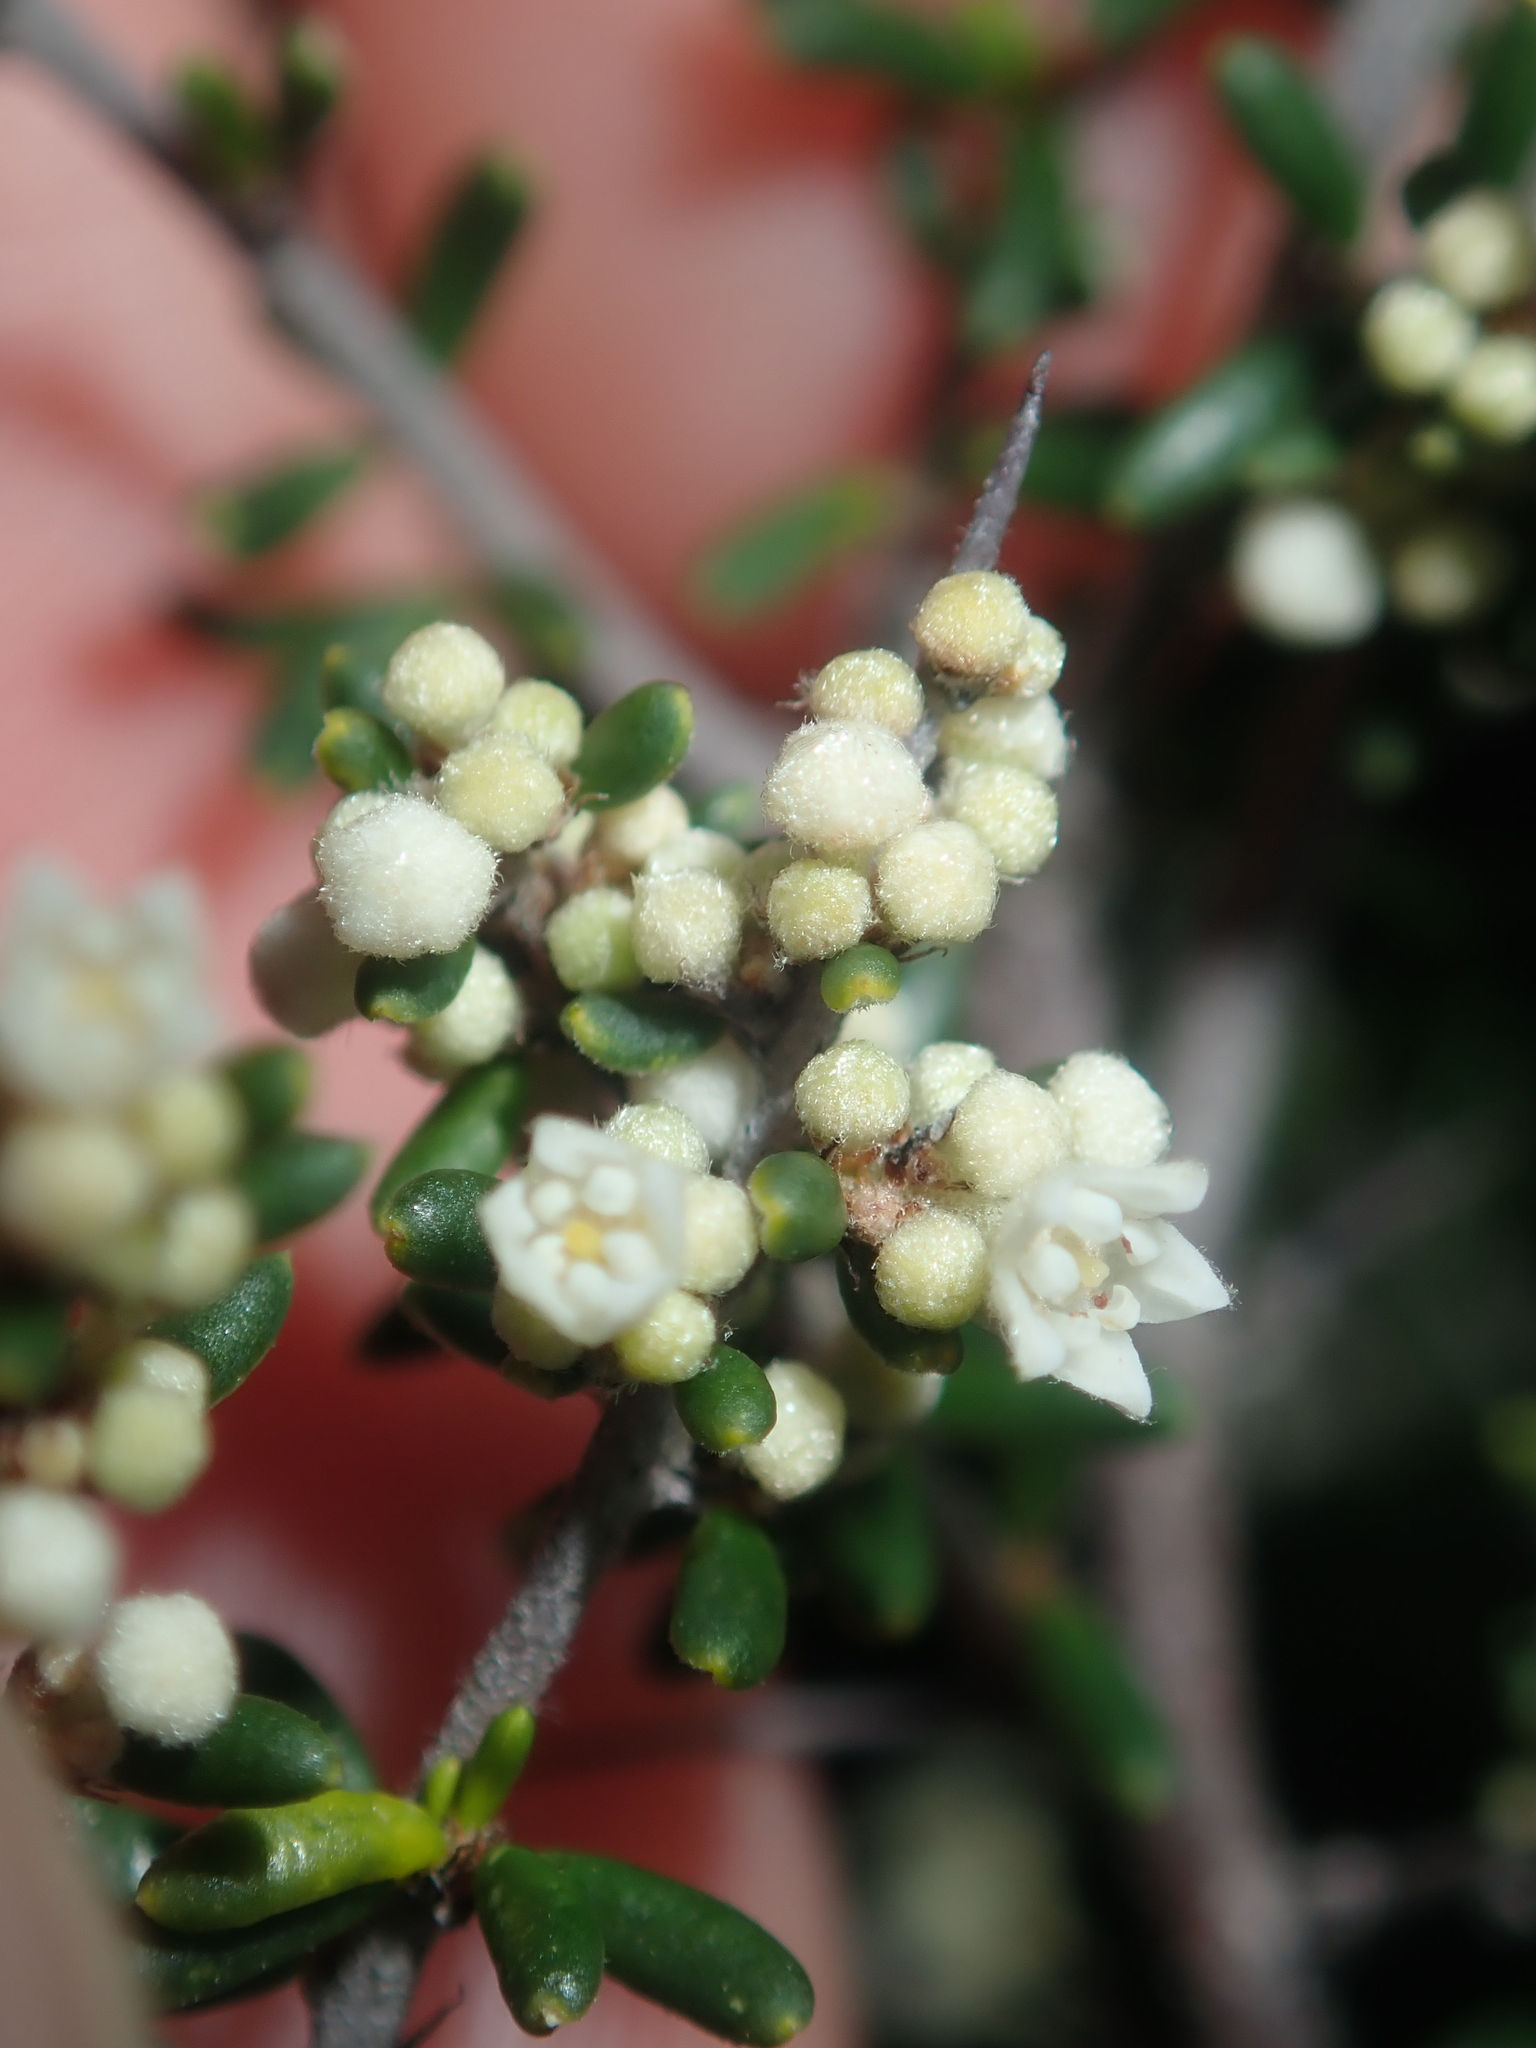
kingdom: Plantae
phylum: Tracheophyta
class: Magnoliopsida
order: Rosales
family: Rhamnaceae
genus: Cryptandra
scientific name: Cryptandra pungens
